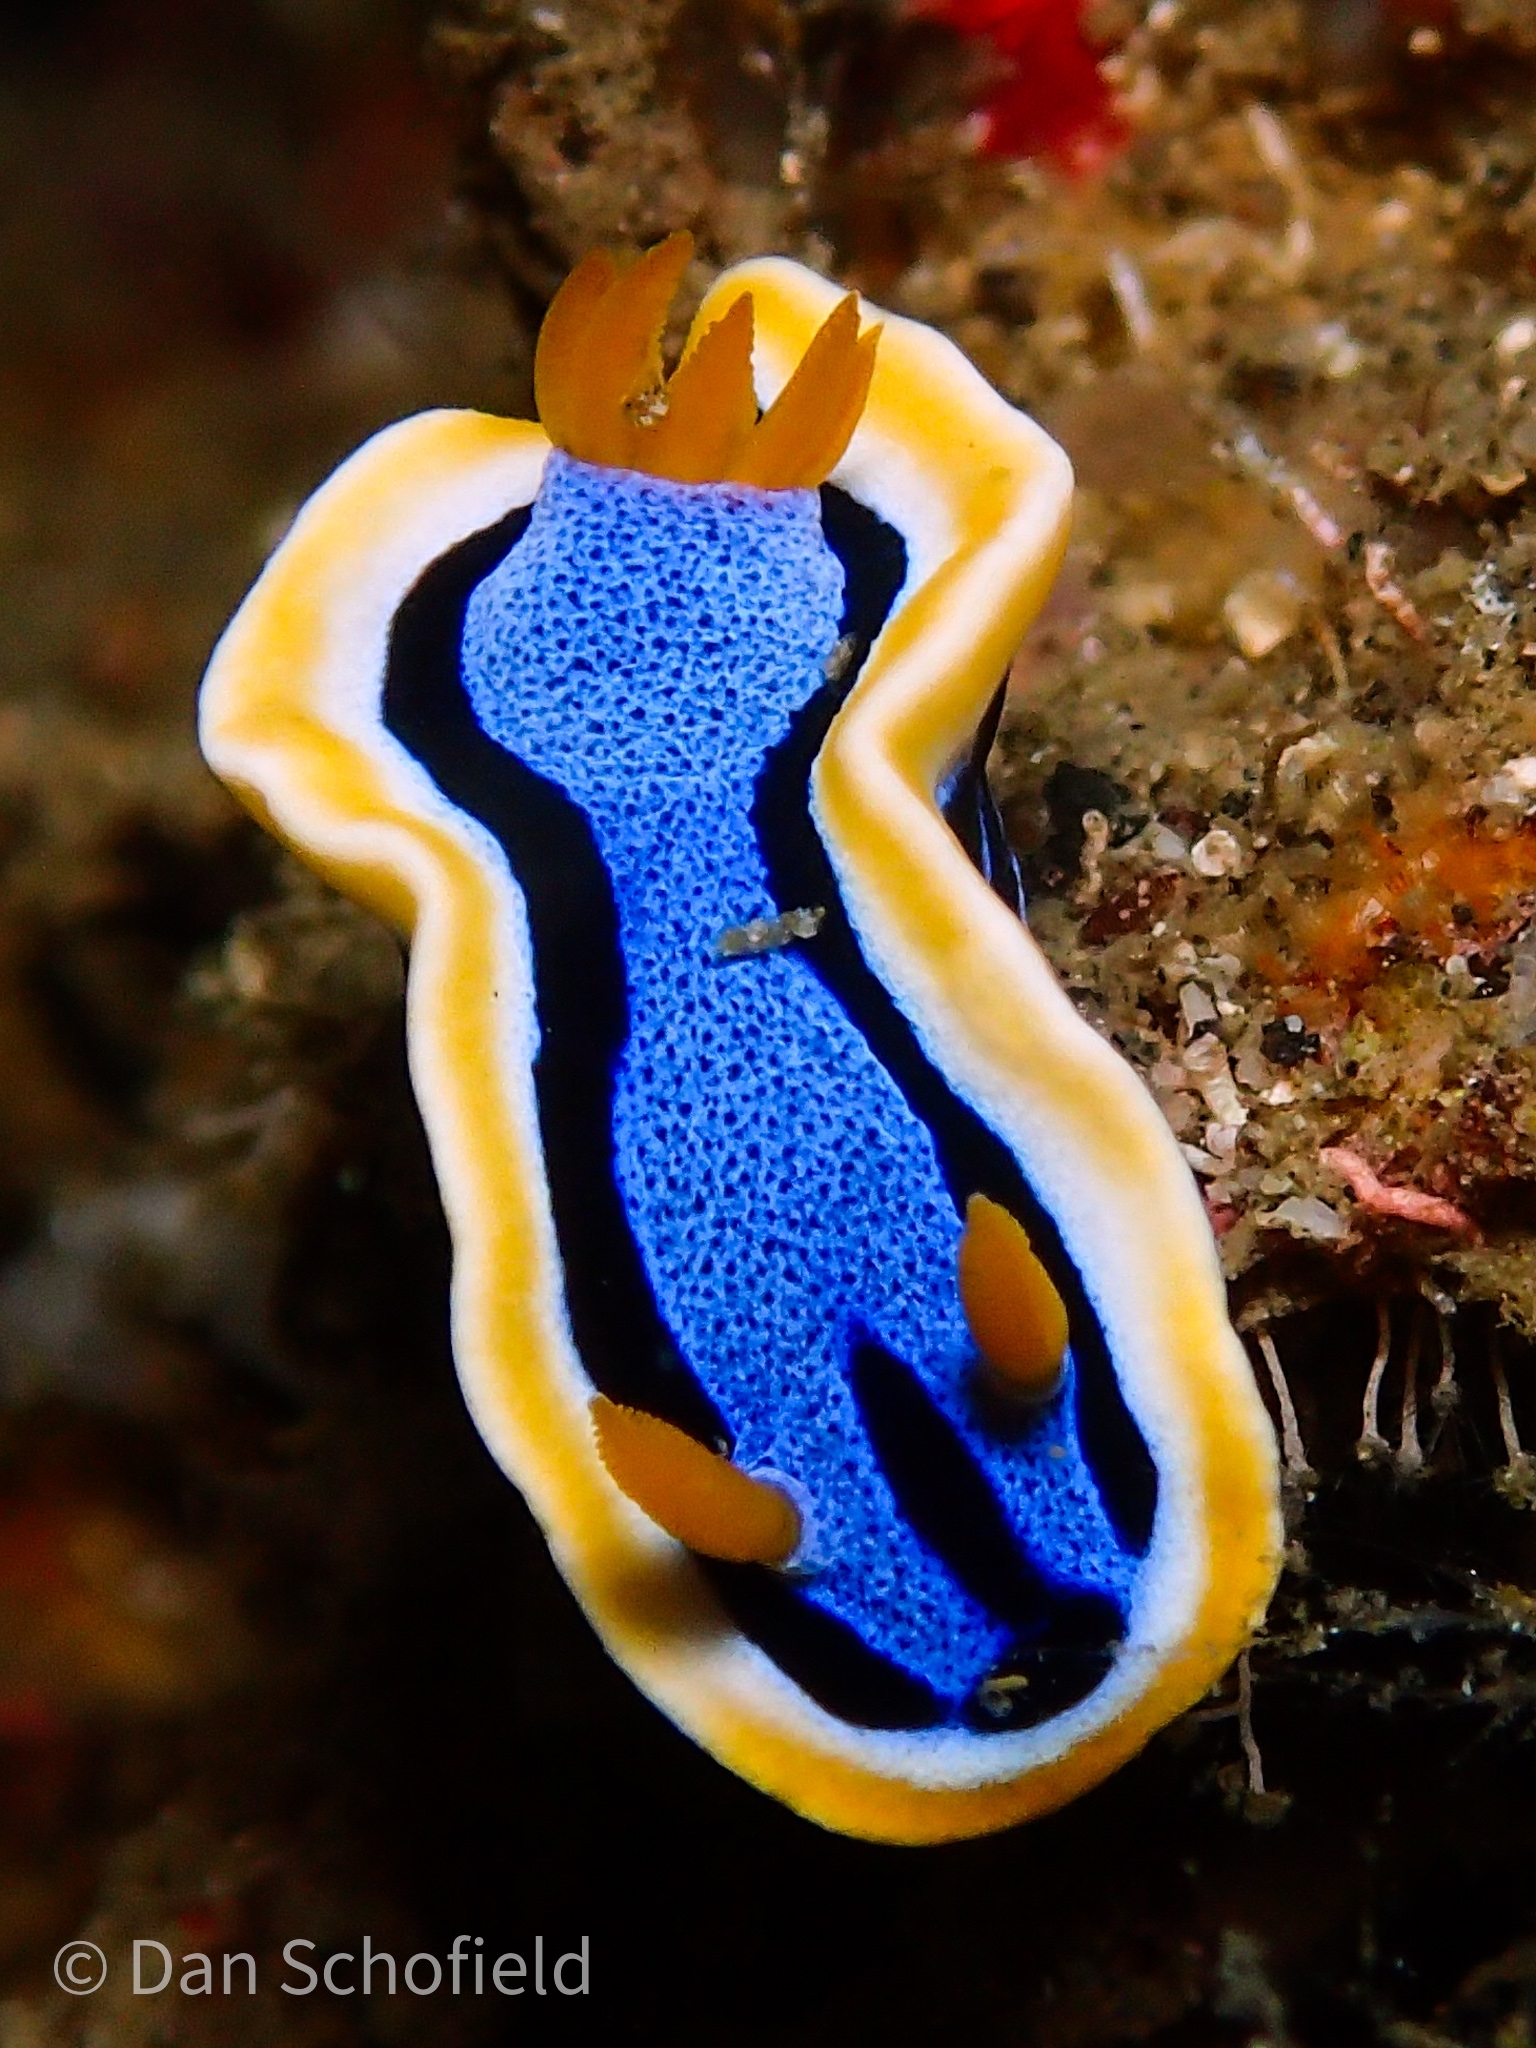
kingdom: Animalia
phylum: Mollusca
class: Gastropoda
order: Nudibranchia
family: Chromodorididae
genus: Chromodoris
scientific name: Chromodoris annae
